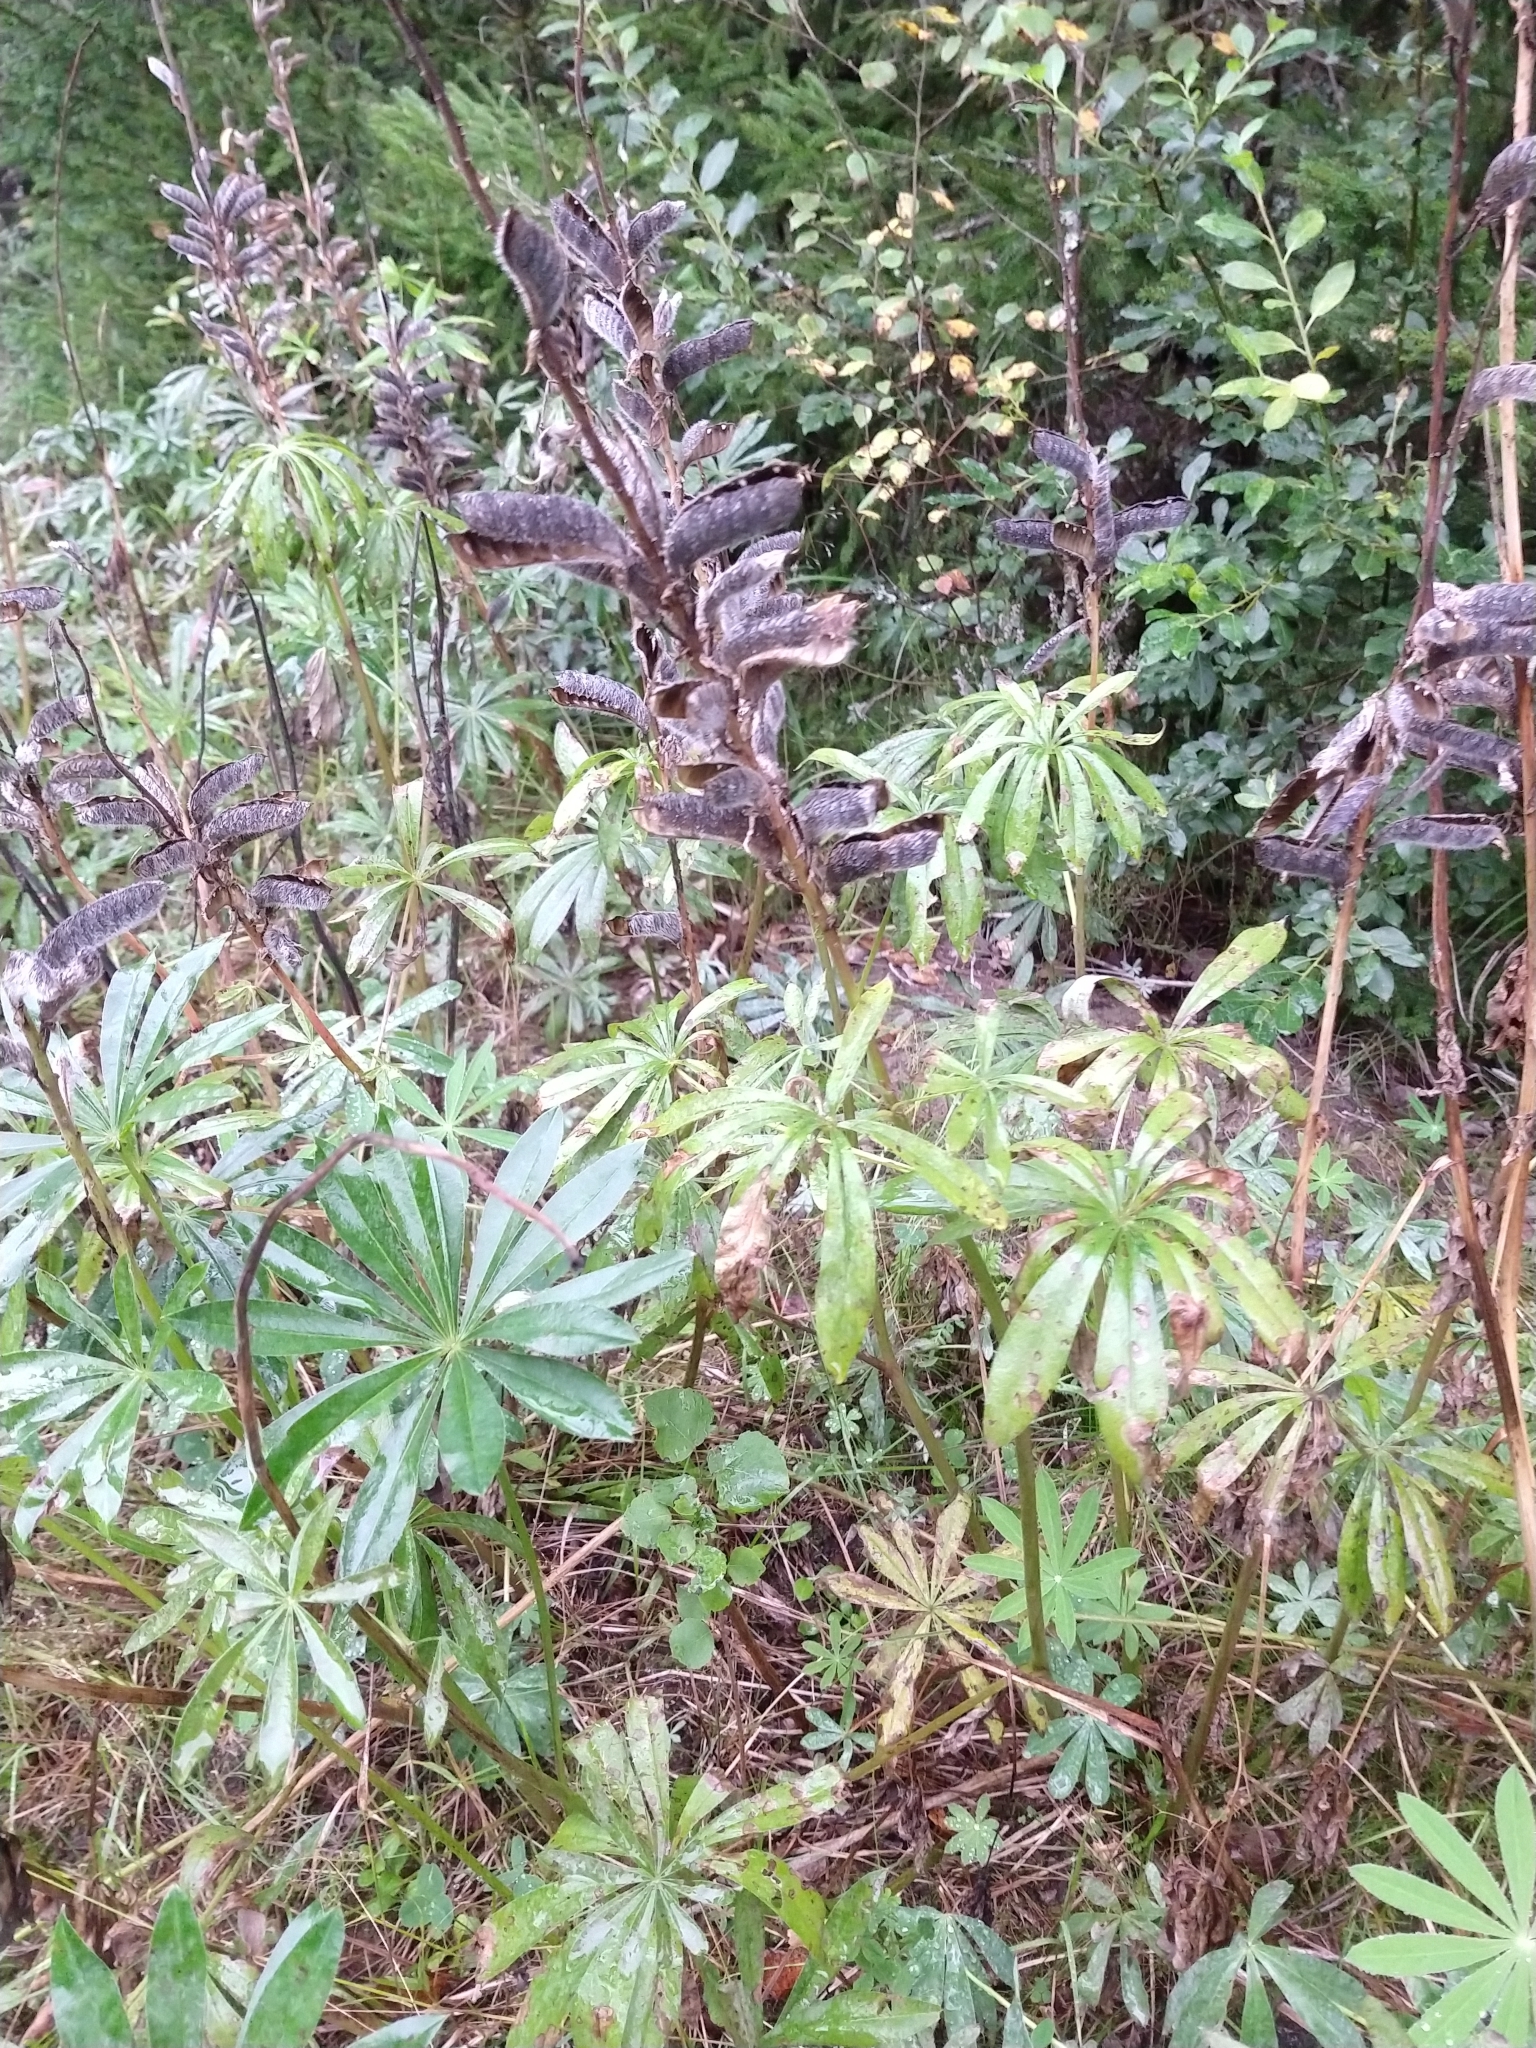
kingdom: Plantae
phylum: Tracheophyta
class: Magnoliopsida
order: Fabales
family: Fabaceae
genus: Lupinus
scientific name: Lupinus polyphyllus
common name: Garden lupin
